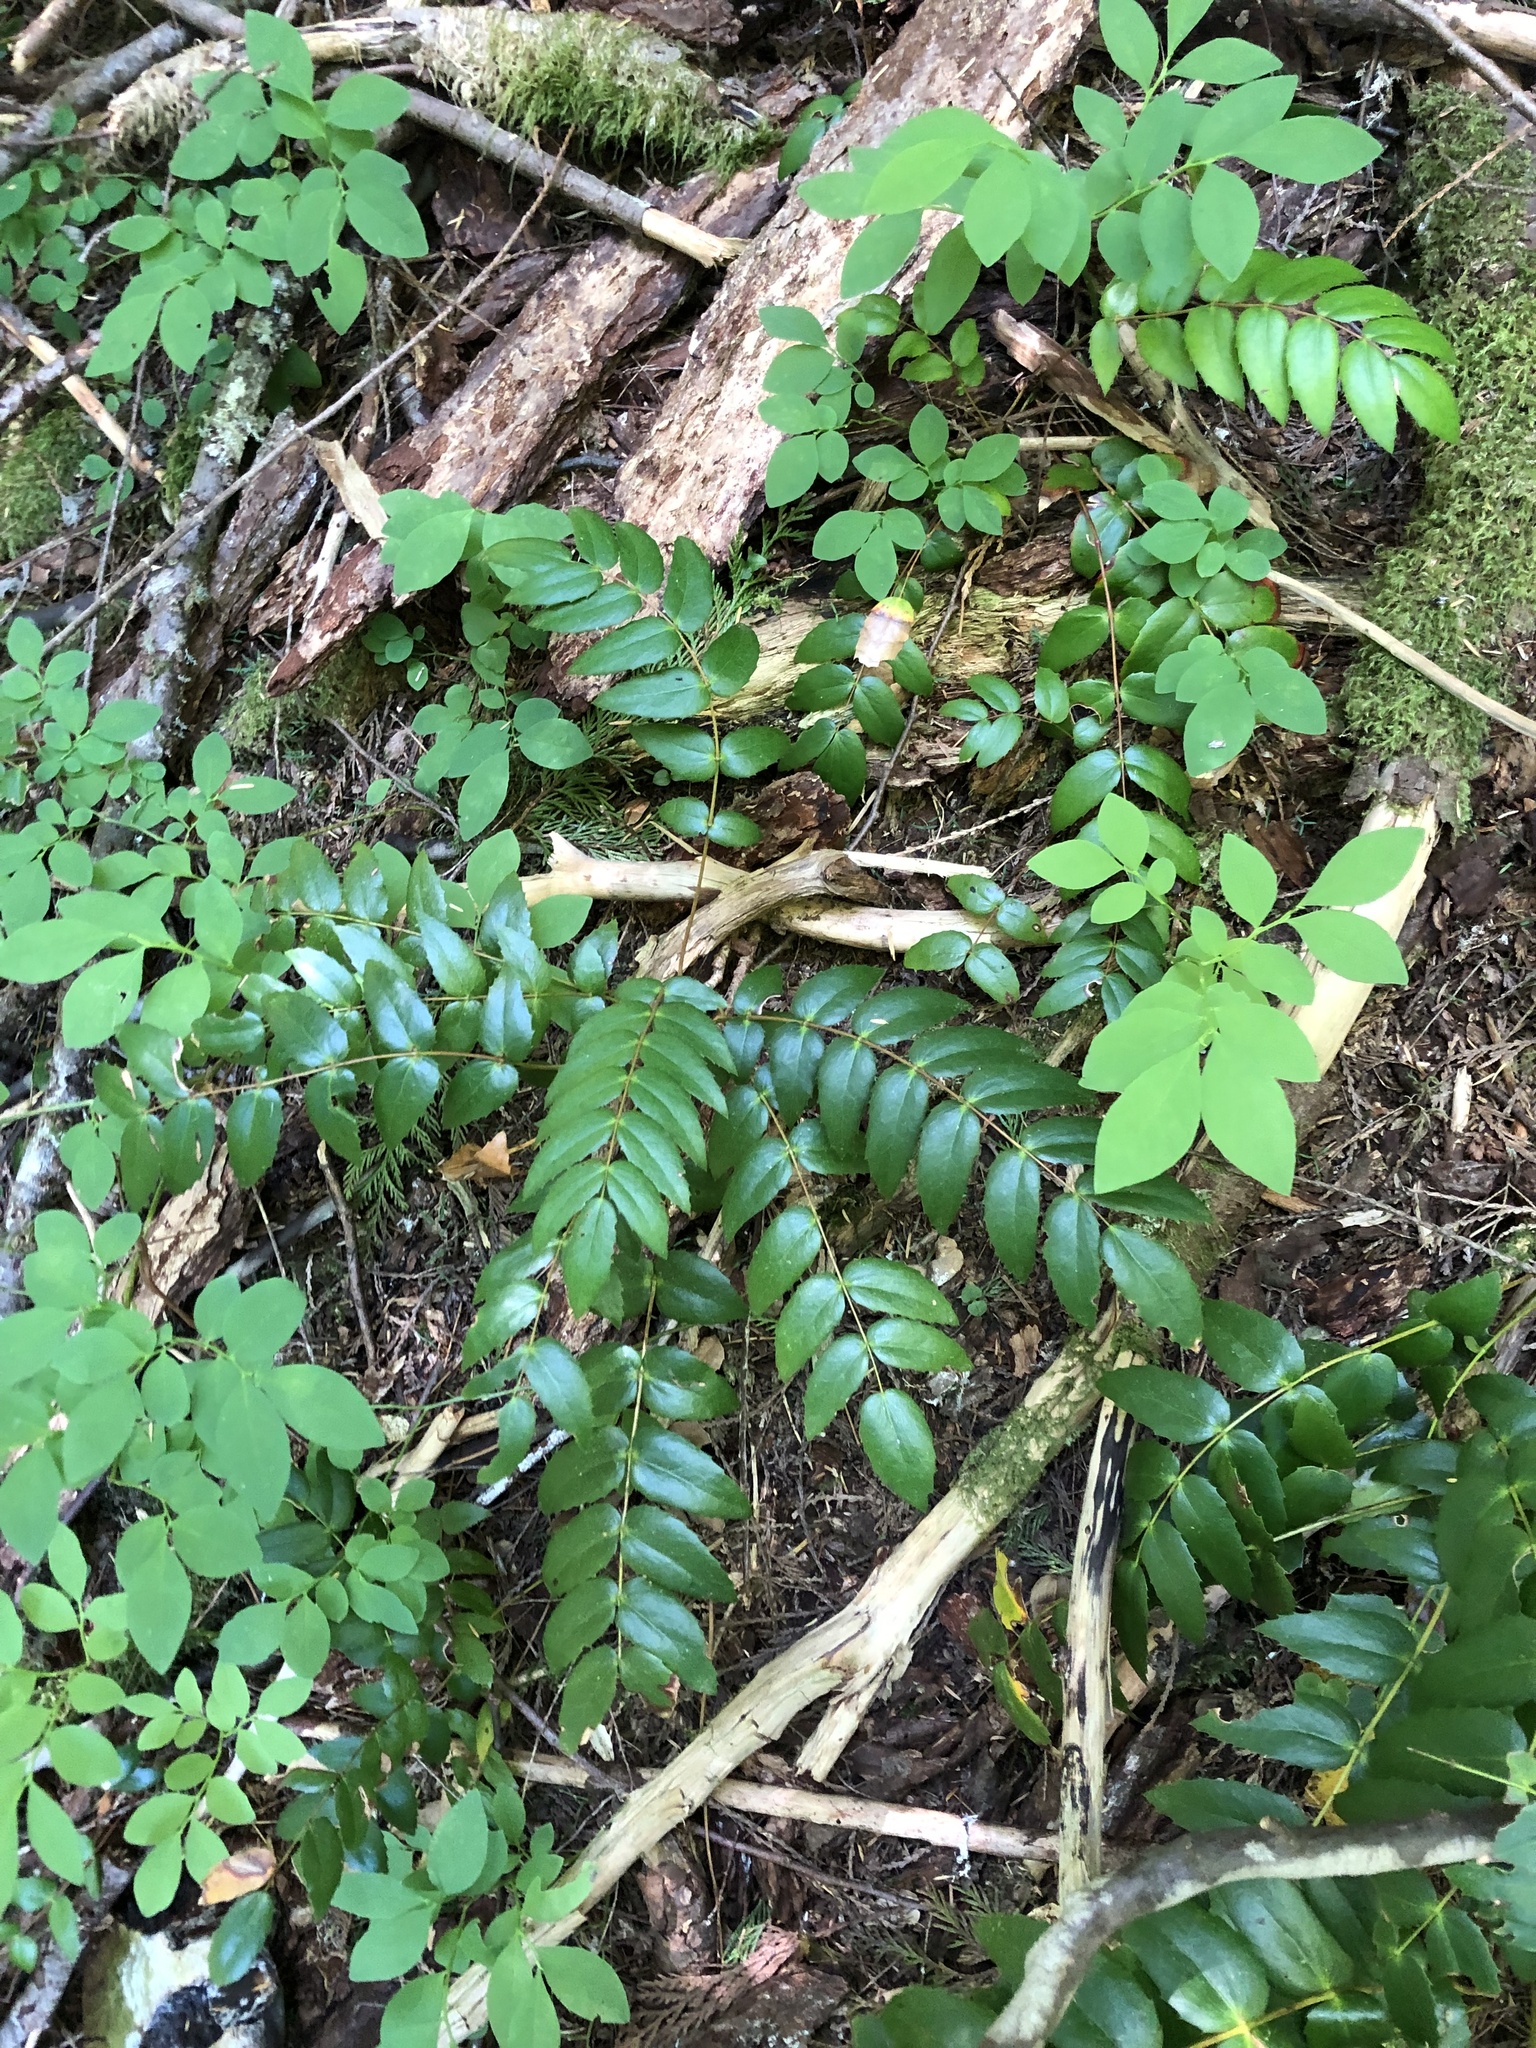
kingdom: Plantae
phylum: Tracheophyta
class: Magnoliopsida
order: Ranunculales
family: Berberidaceae
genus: Mahonia
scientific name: Mahonia nervosa
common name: Cascade oregon-grape
